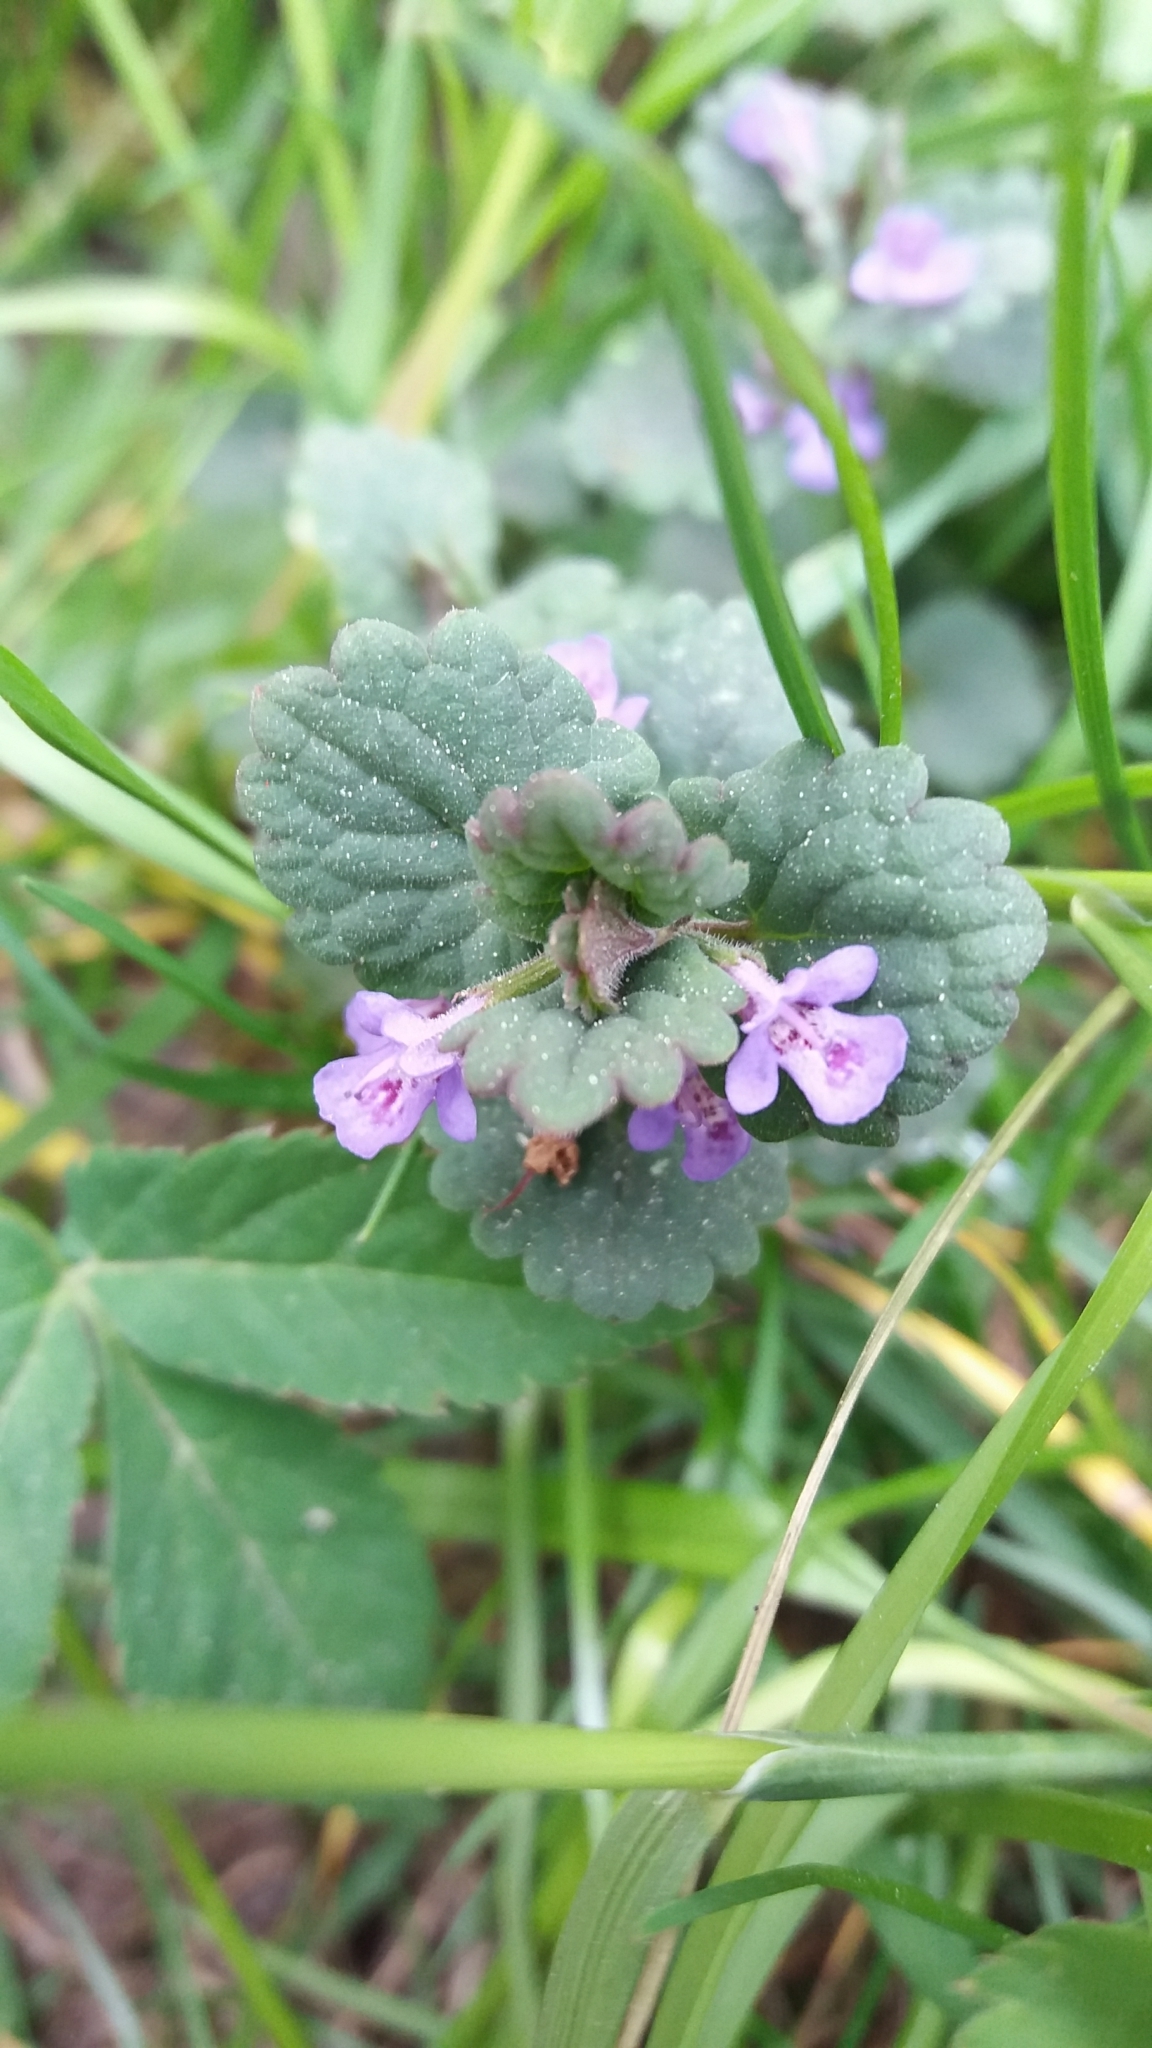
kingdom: Plantae
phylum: Tracheophyta
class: Magnoliopsida
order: Lamiales
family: Lamiaceae
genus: Glechoma
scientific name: Glechoma hederacea
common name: Ground ivy
